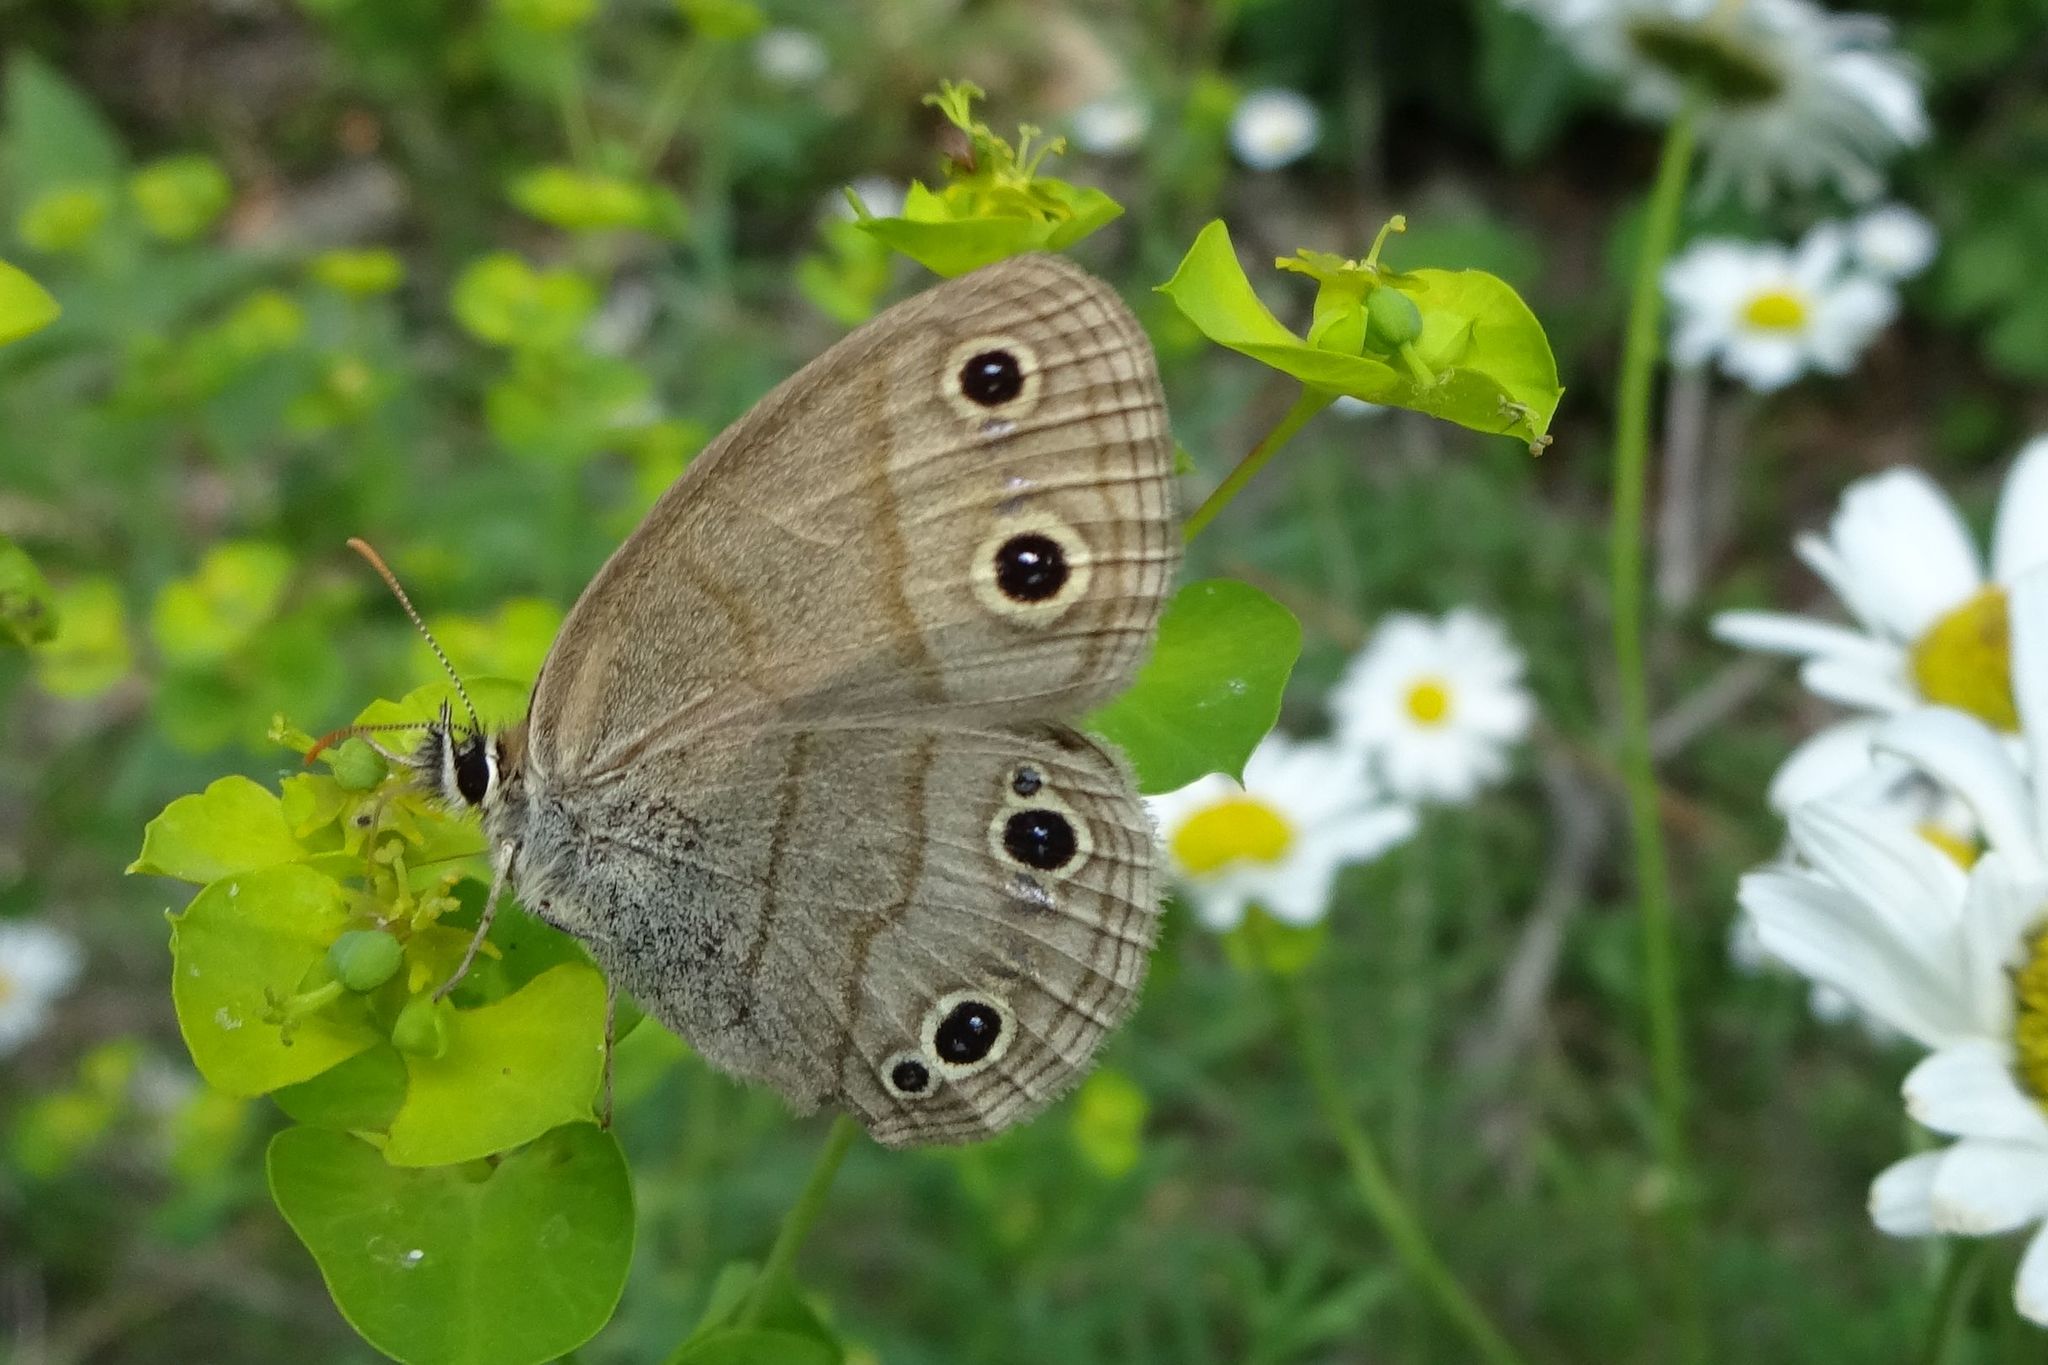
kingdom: Animalia
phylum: Arthropoda
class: Insecta
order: Lepidoptera
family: Nymphalidae
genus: Euptychia
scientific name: Euptychia cymela
